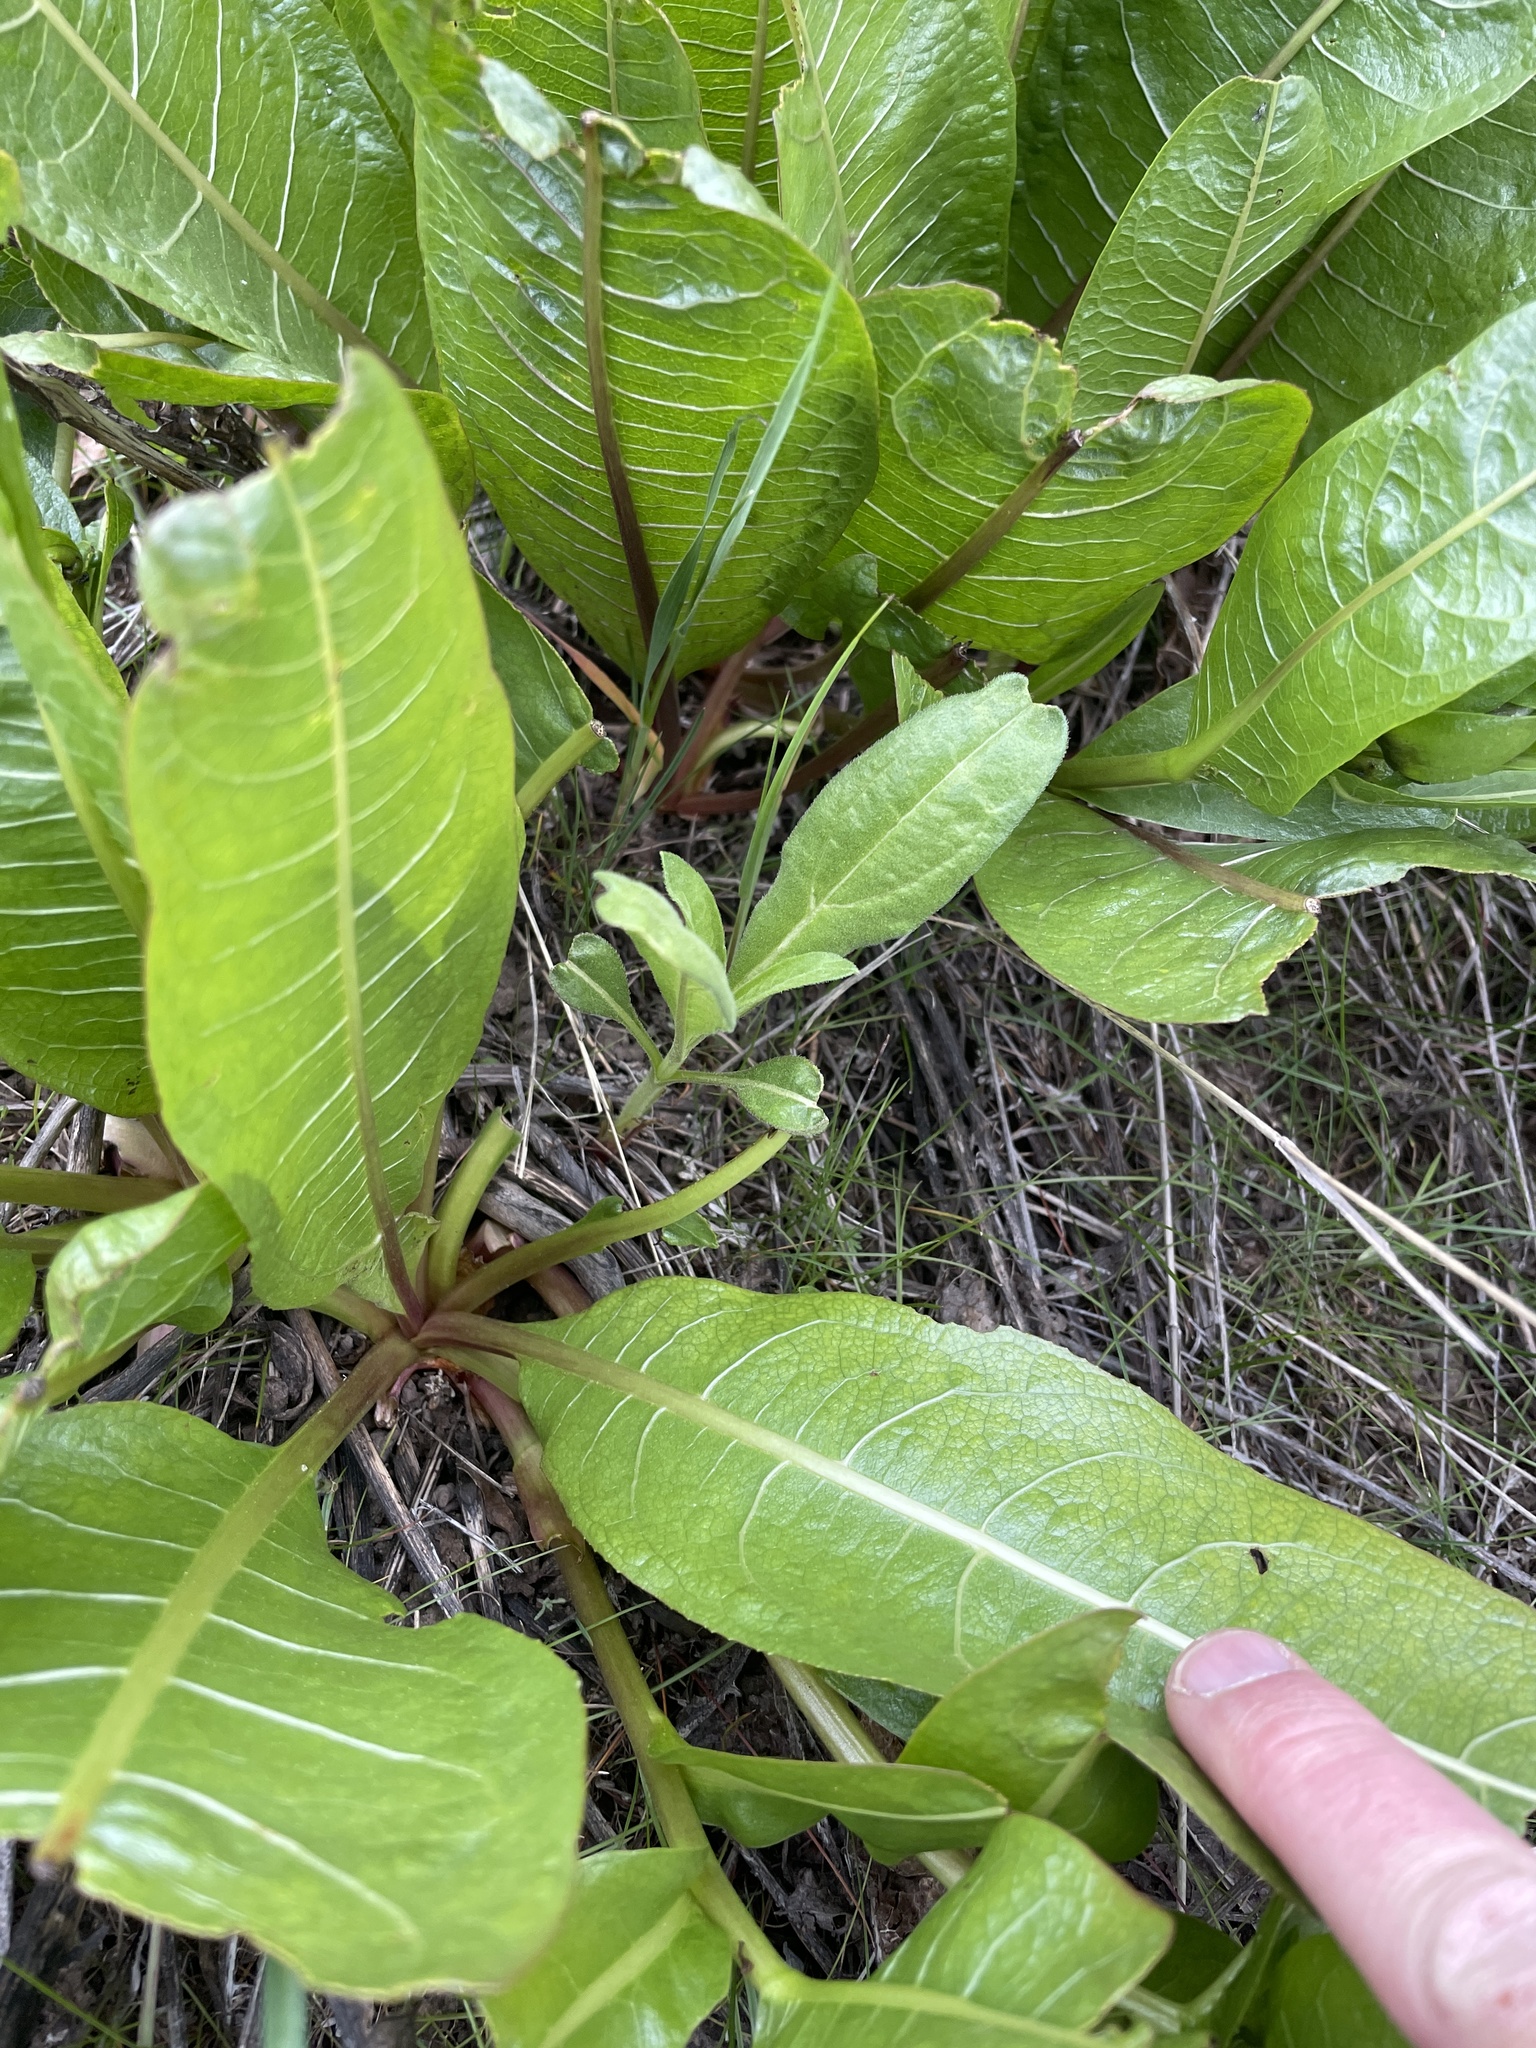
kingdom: Plantae
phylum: Tracheophyta
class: Magnoliopsida
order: Asterales
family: Asteraceae
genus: Wyethia
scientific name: Wyethia amplexicaulis
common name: Northern mule's-ears
